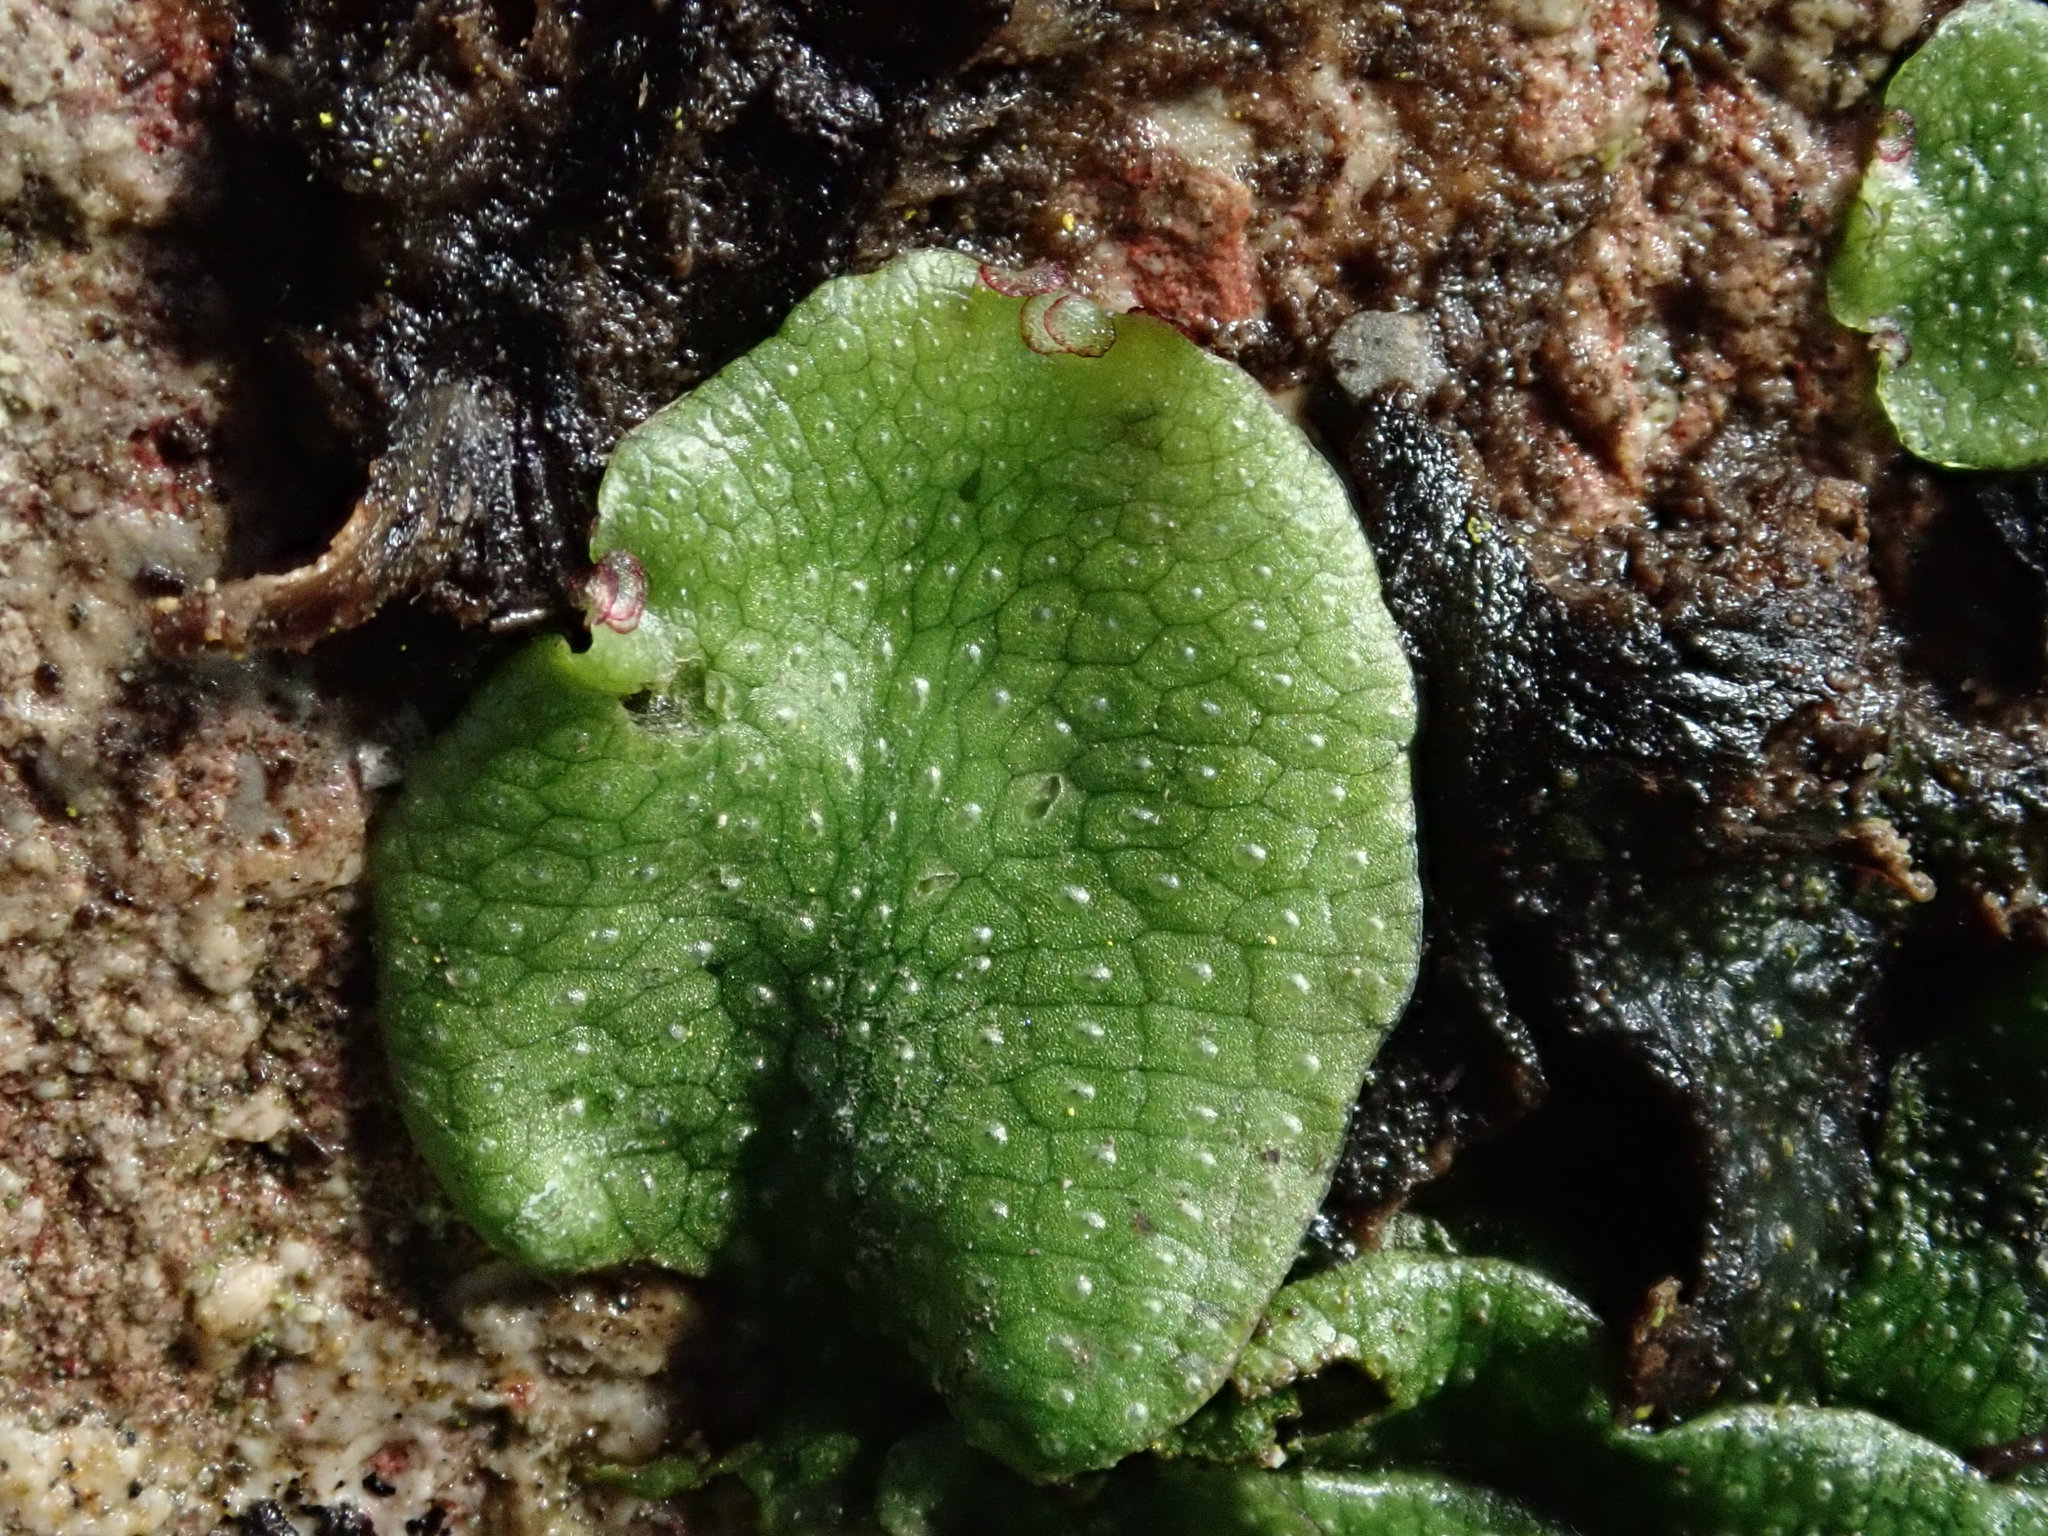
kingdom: Plantae
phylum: Marchantiophyta
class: Marchantiopsida
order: Marchantiales
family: Conocephalaceae
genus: Conocephalum
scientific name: Conocephalum conicum
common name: Great scented liverwort
